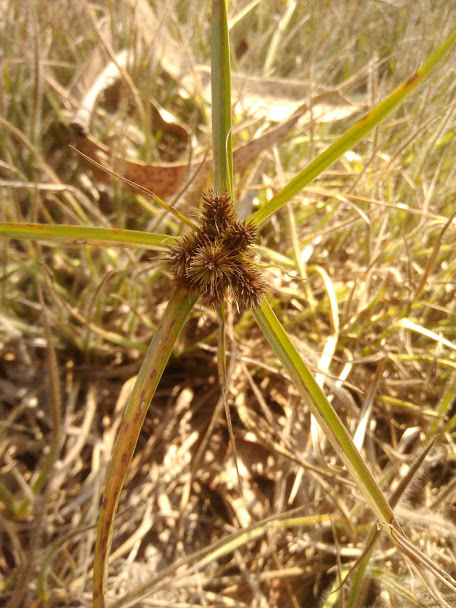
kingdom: Plantae
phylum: Tracheophyta
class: Liliopsida
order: Poales
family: Cyperaceae
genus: Cyperus
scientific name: Cyperus aggregatus
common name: Inflatedscale flatsedge
